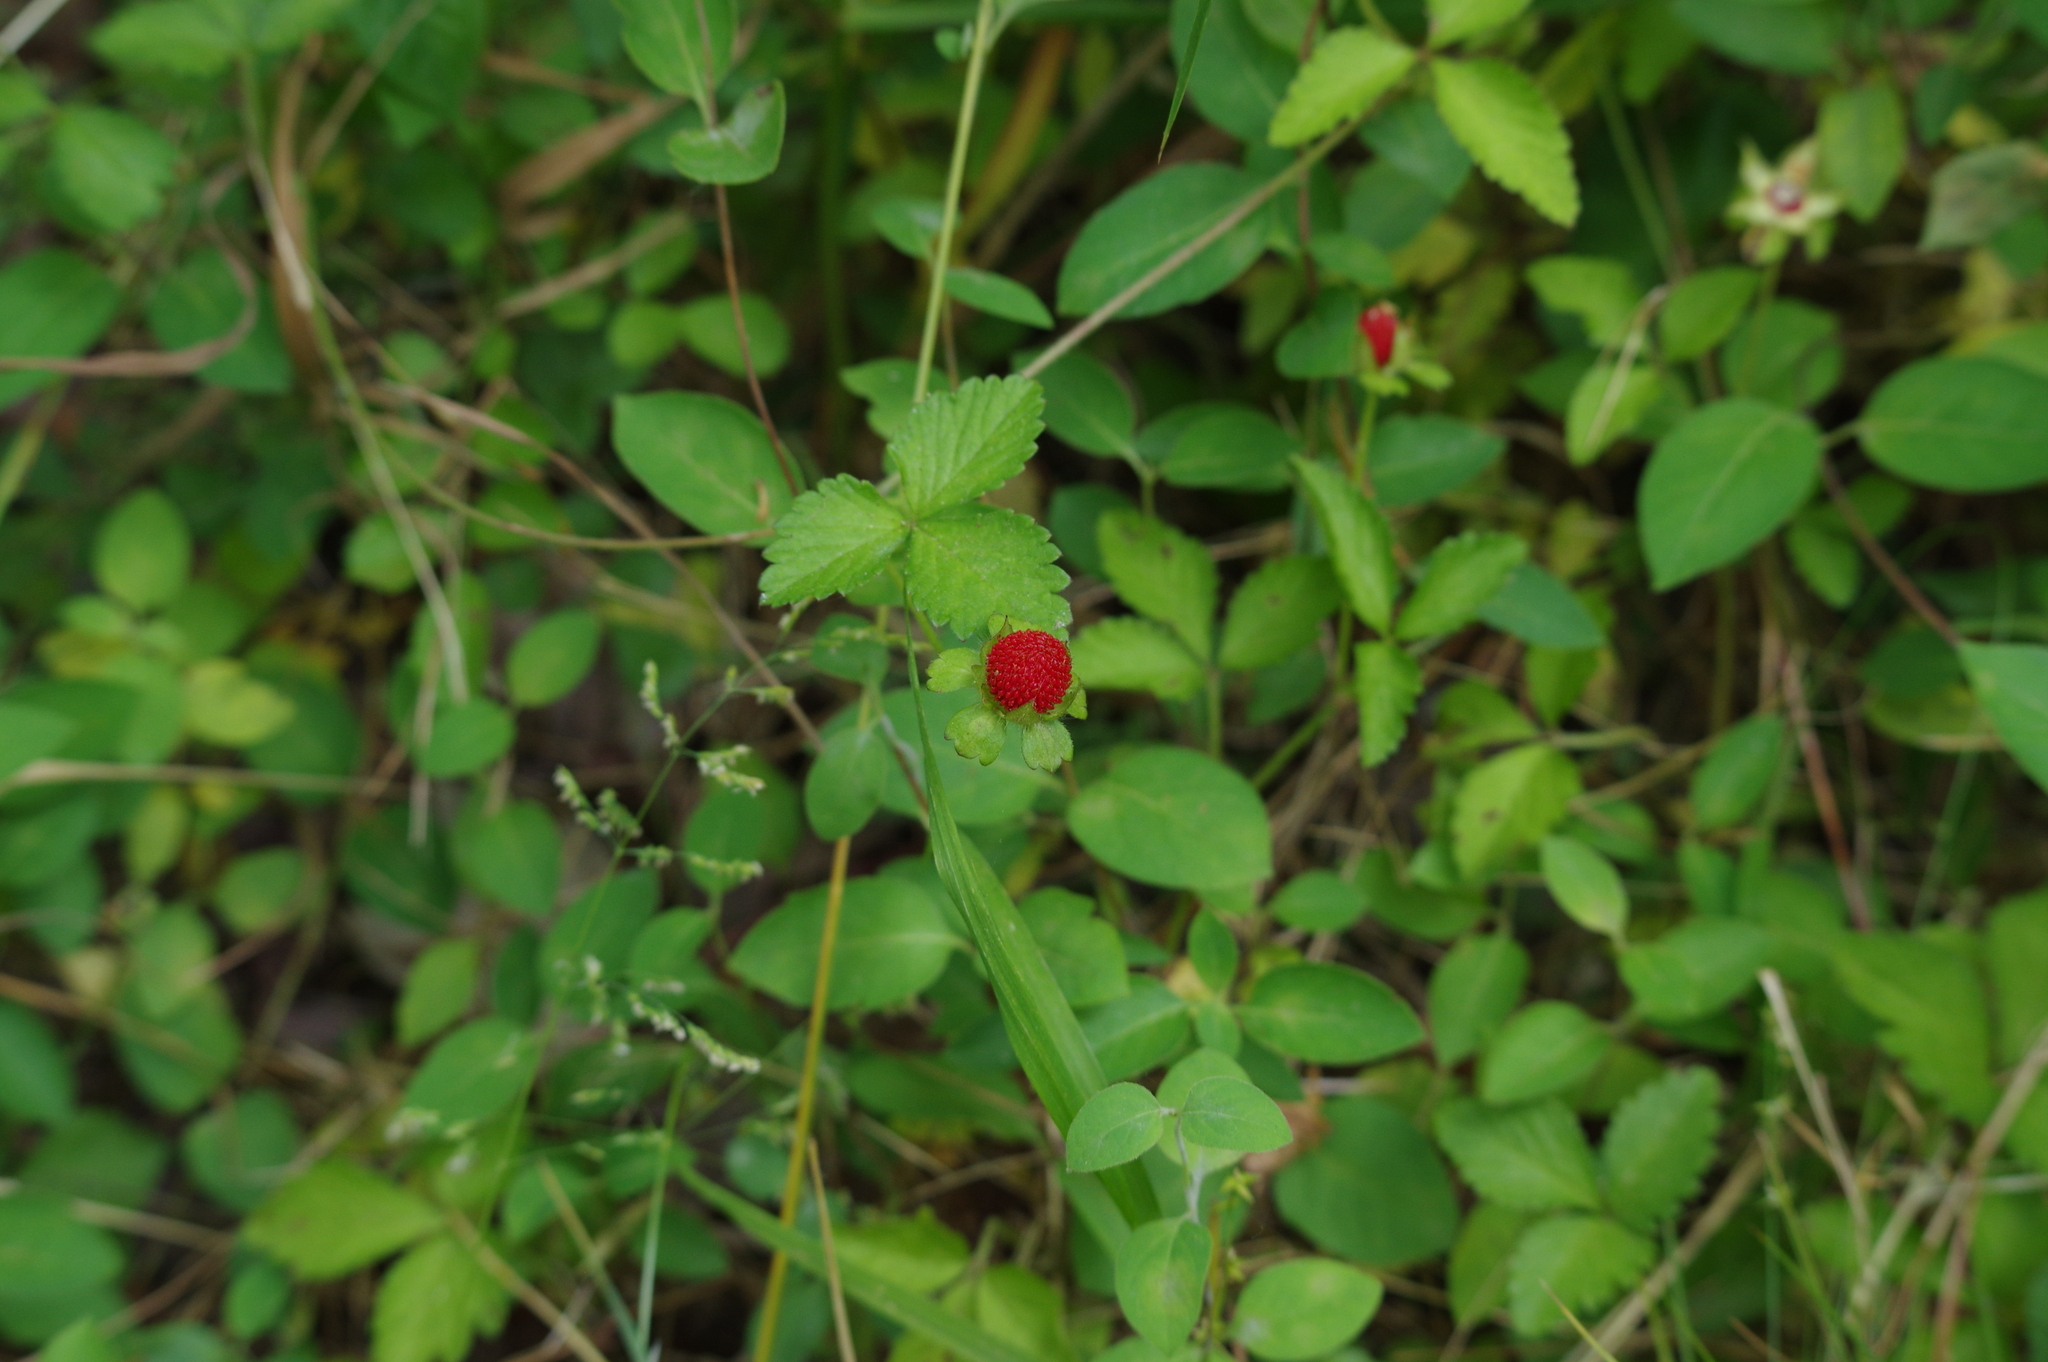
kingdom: Plantae
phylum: Tracheophyta
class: Magnoliopsida
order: Rosales
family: Rosaceae
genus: Potentilla
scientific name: Potentilla indica
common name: Yellow-flowered strawberry
